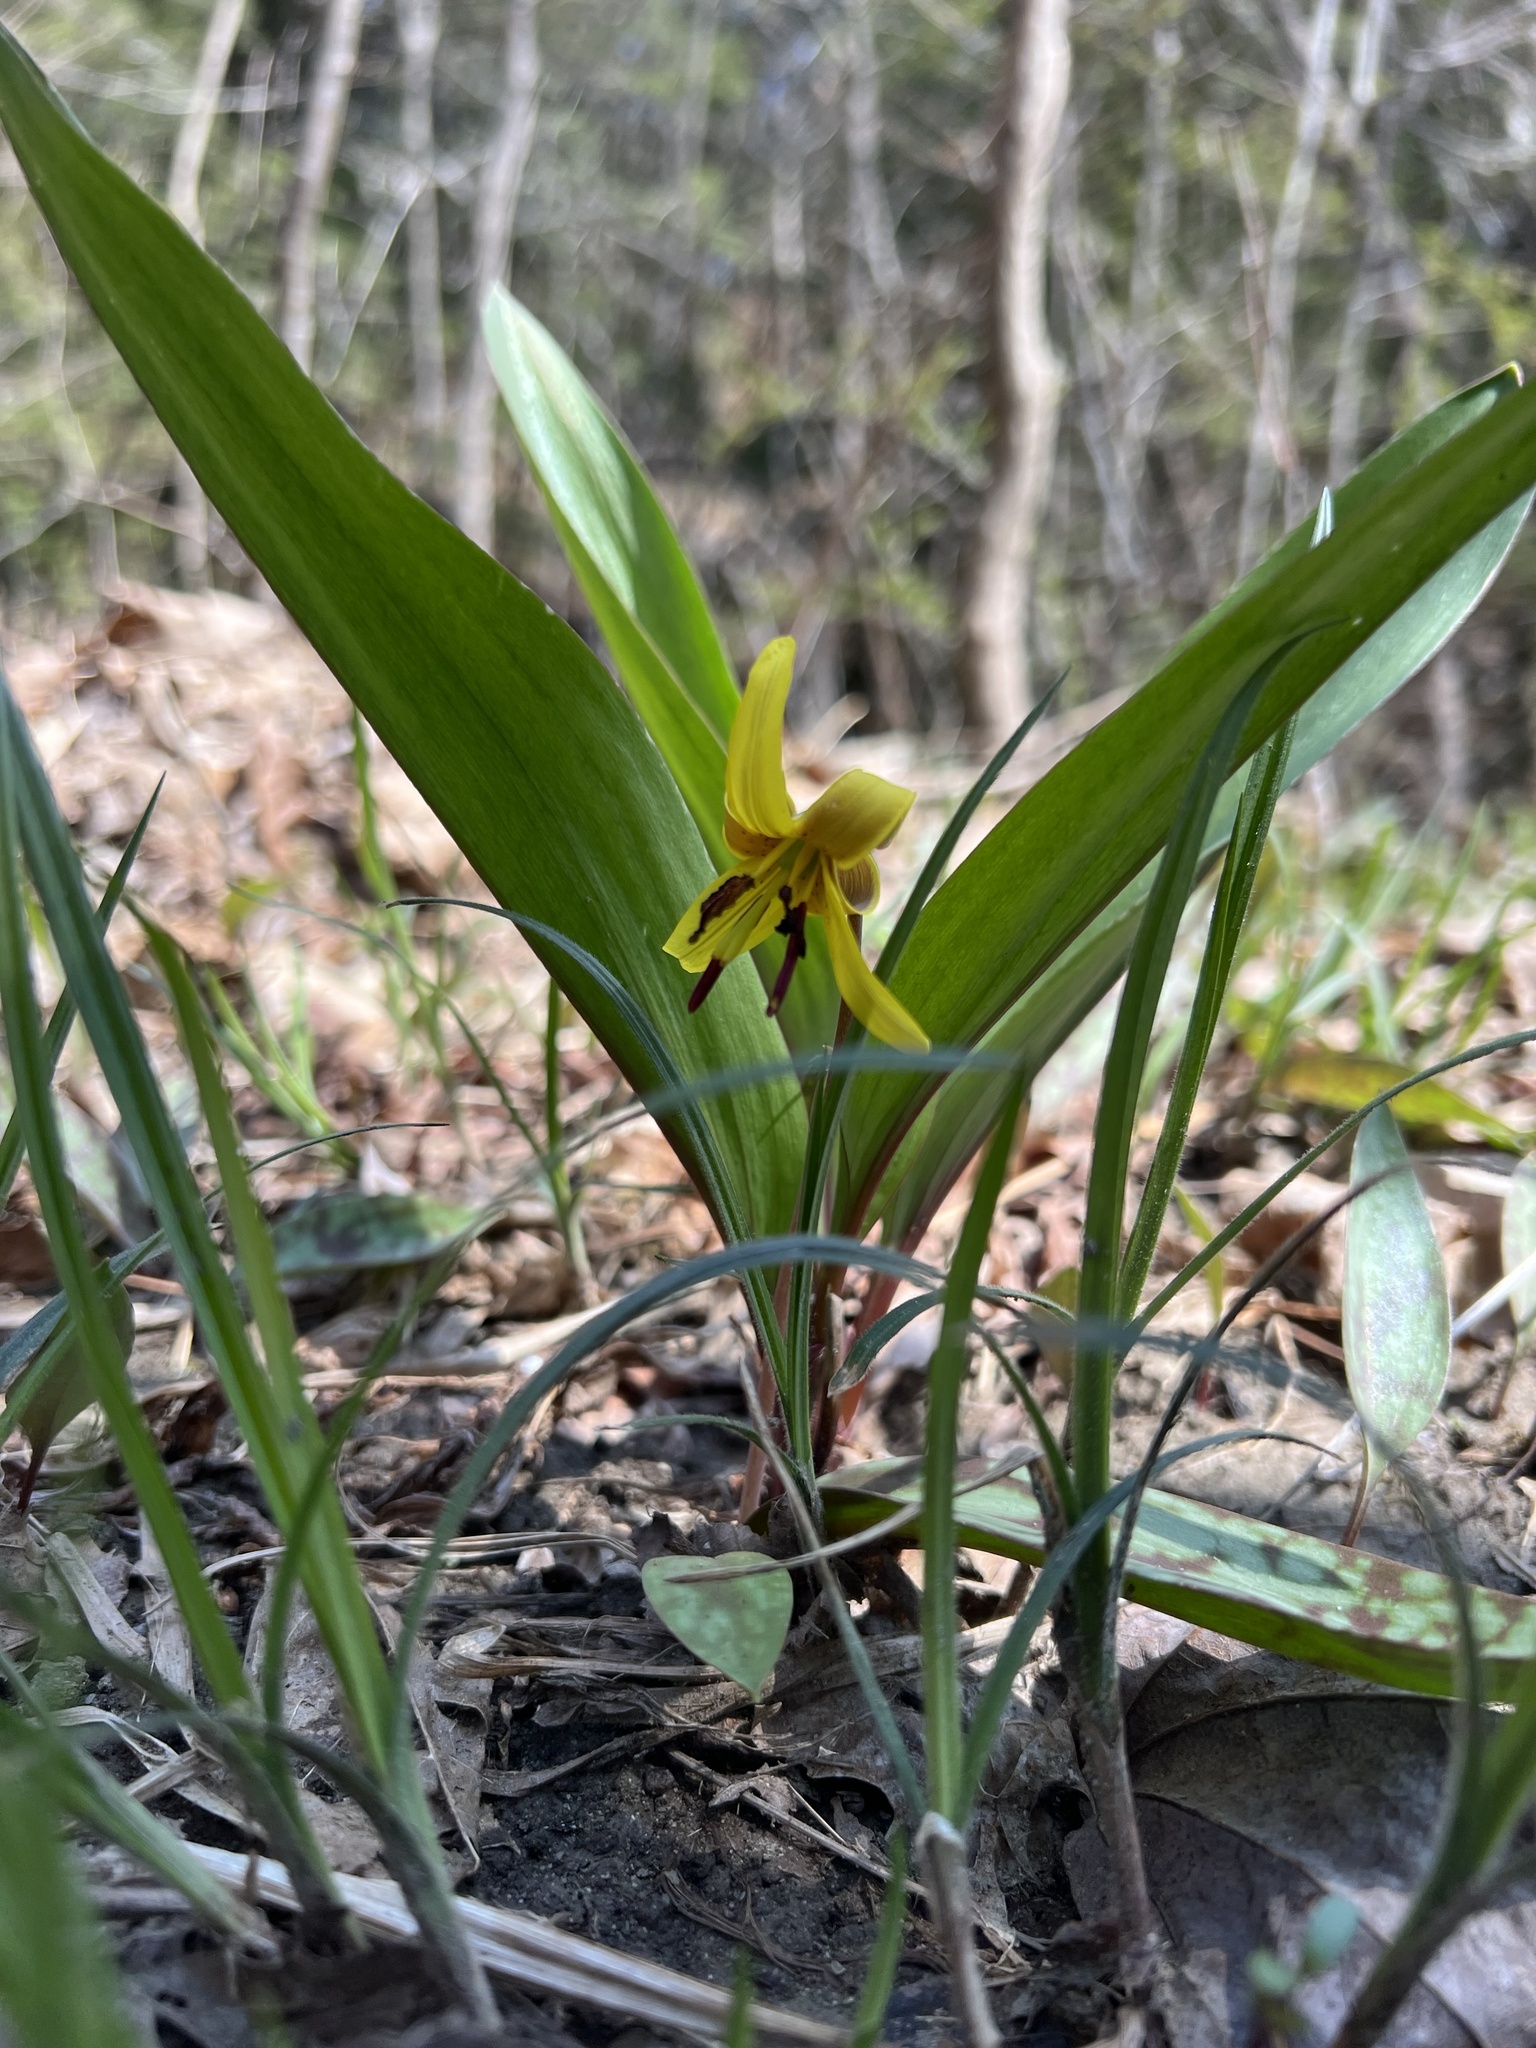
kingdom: Plantae
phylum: Tracheophyta
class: Liliopsida
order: Liliales
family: Liliaceae
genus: Erythronium
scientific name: Erythronium americanum
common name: Yellow adder's-tongue
